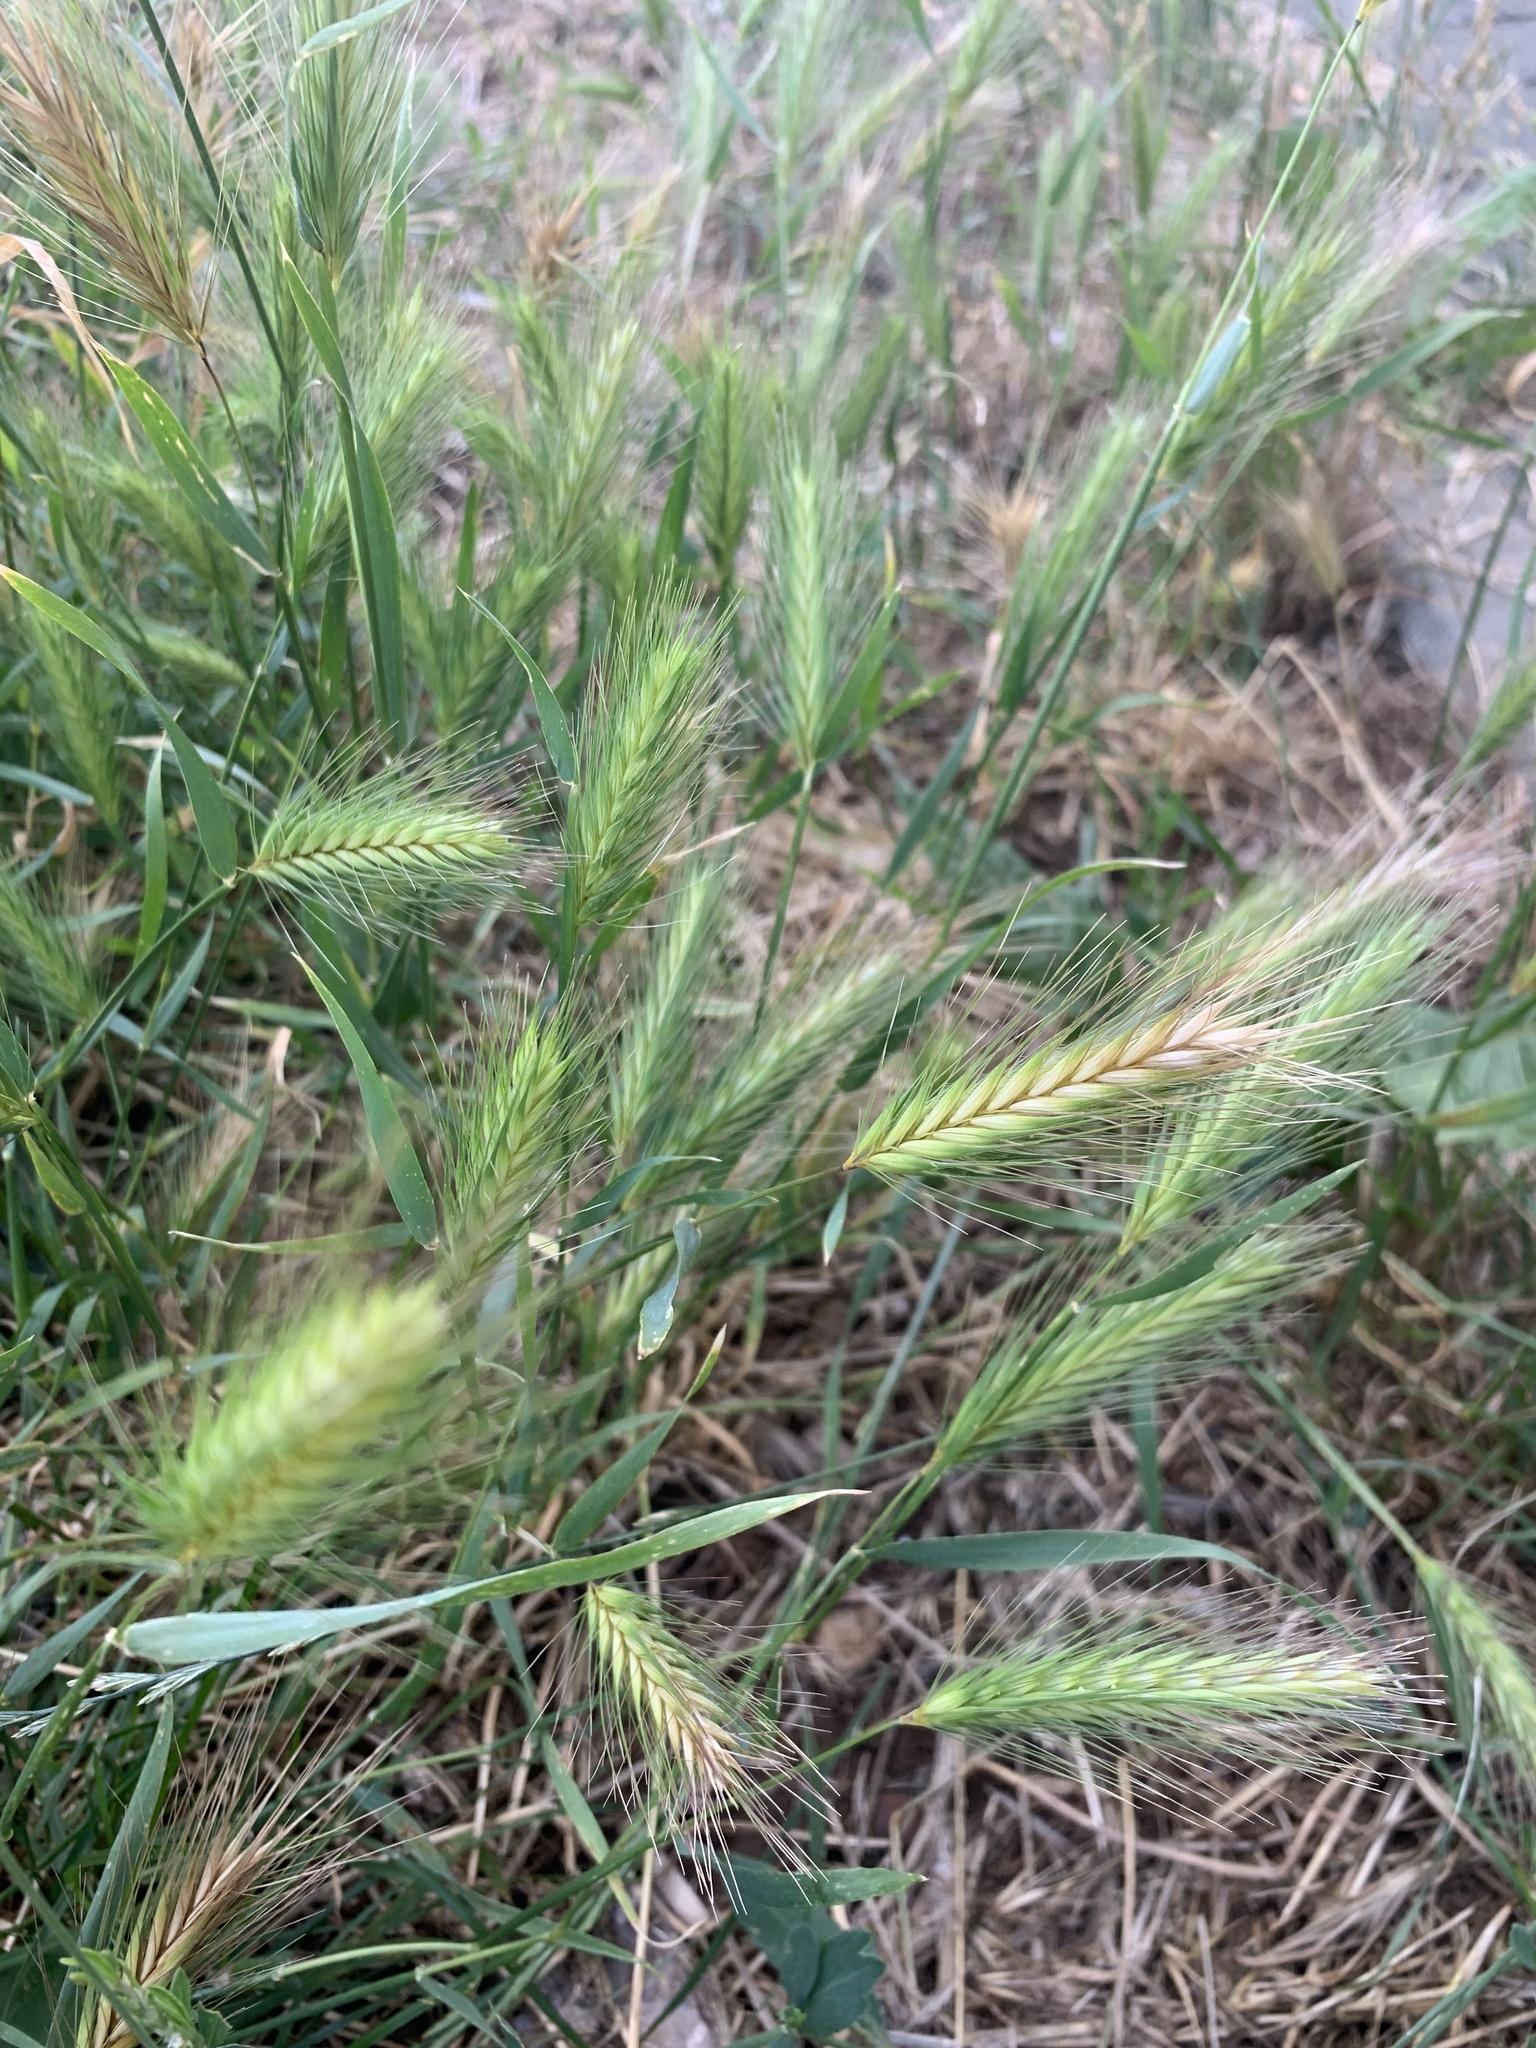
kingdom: Plantae
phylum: Tracheophyta
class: Liliopsida
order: Poales
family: Poaceae
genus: Hordeum
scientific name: Hordeum murinum
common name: Wall barley
